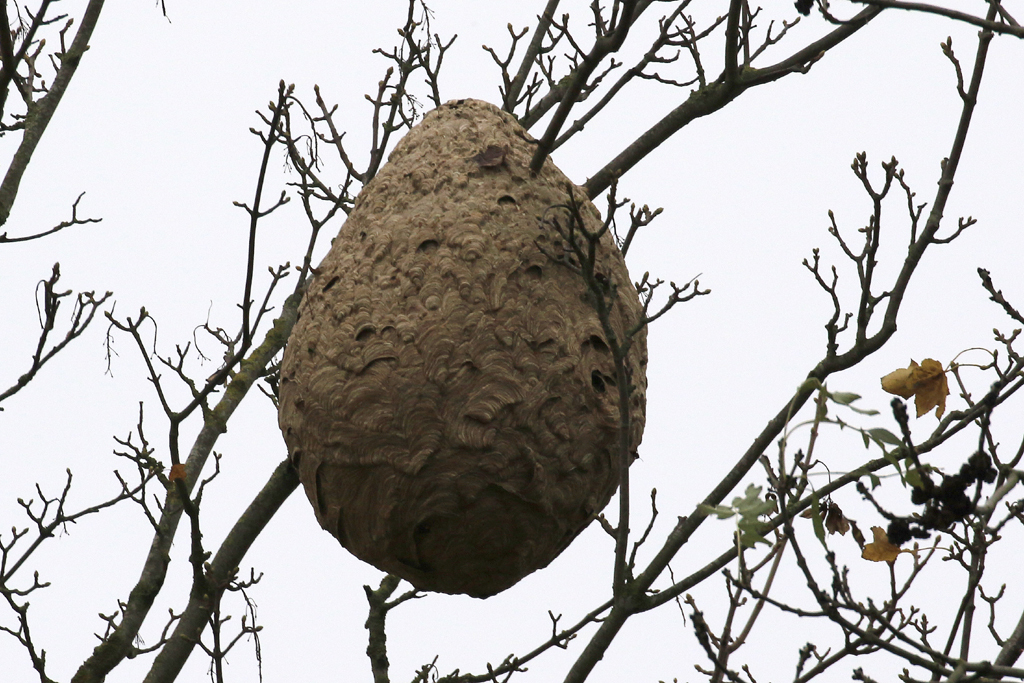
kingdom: Animalia
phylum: Arthropoda
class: Insecta
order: Hymenoptera
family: Vespidae
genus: Vespa
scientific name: Vespa velutina
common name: Asian hornet
